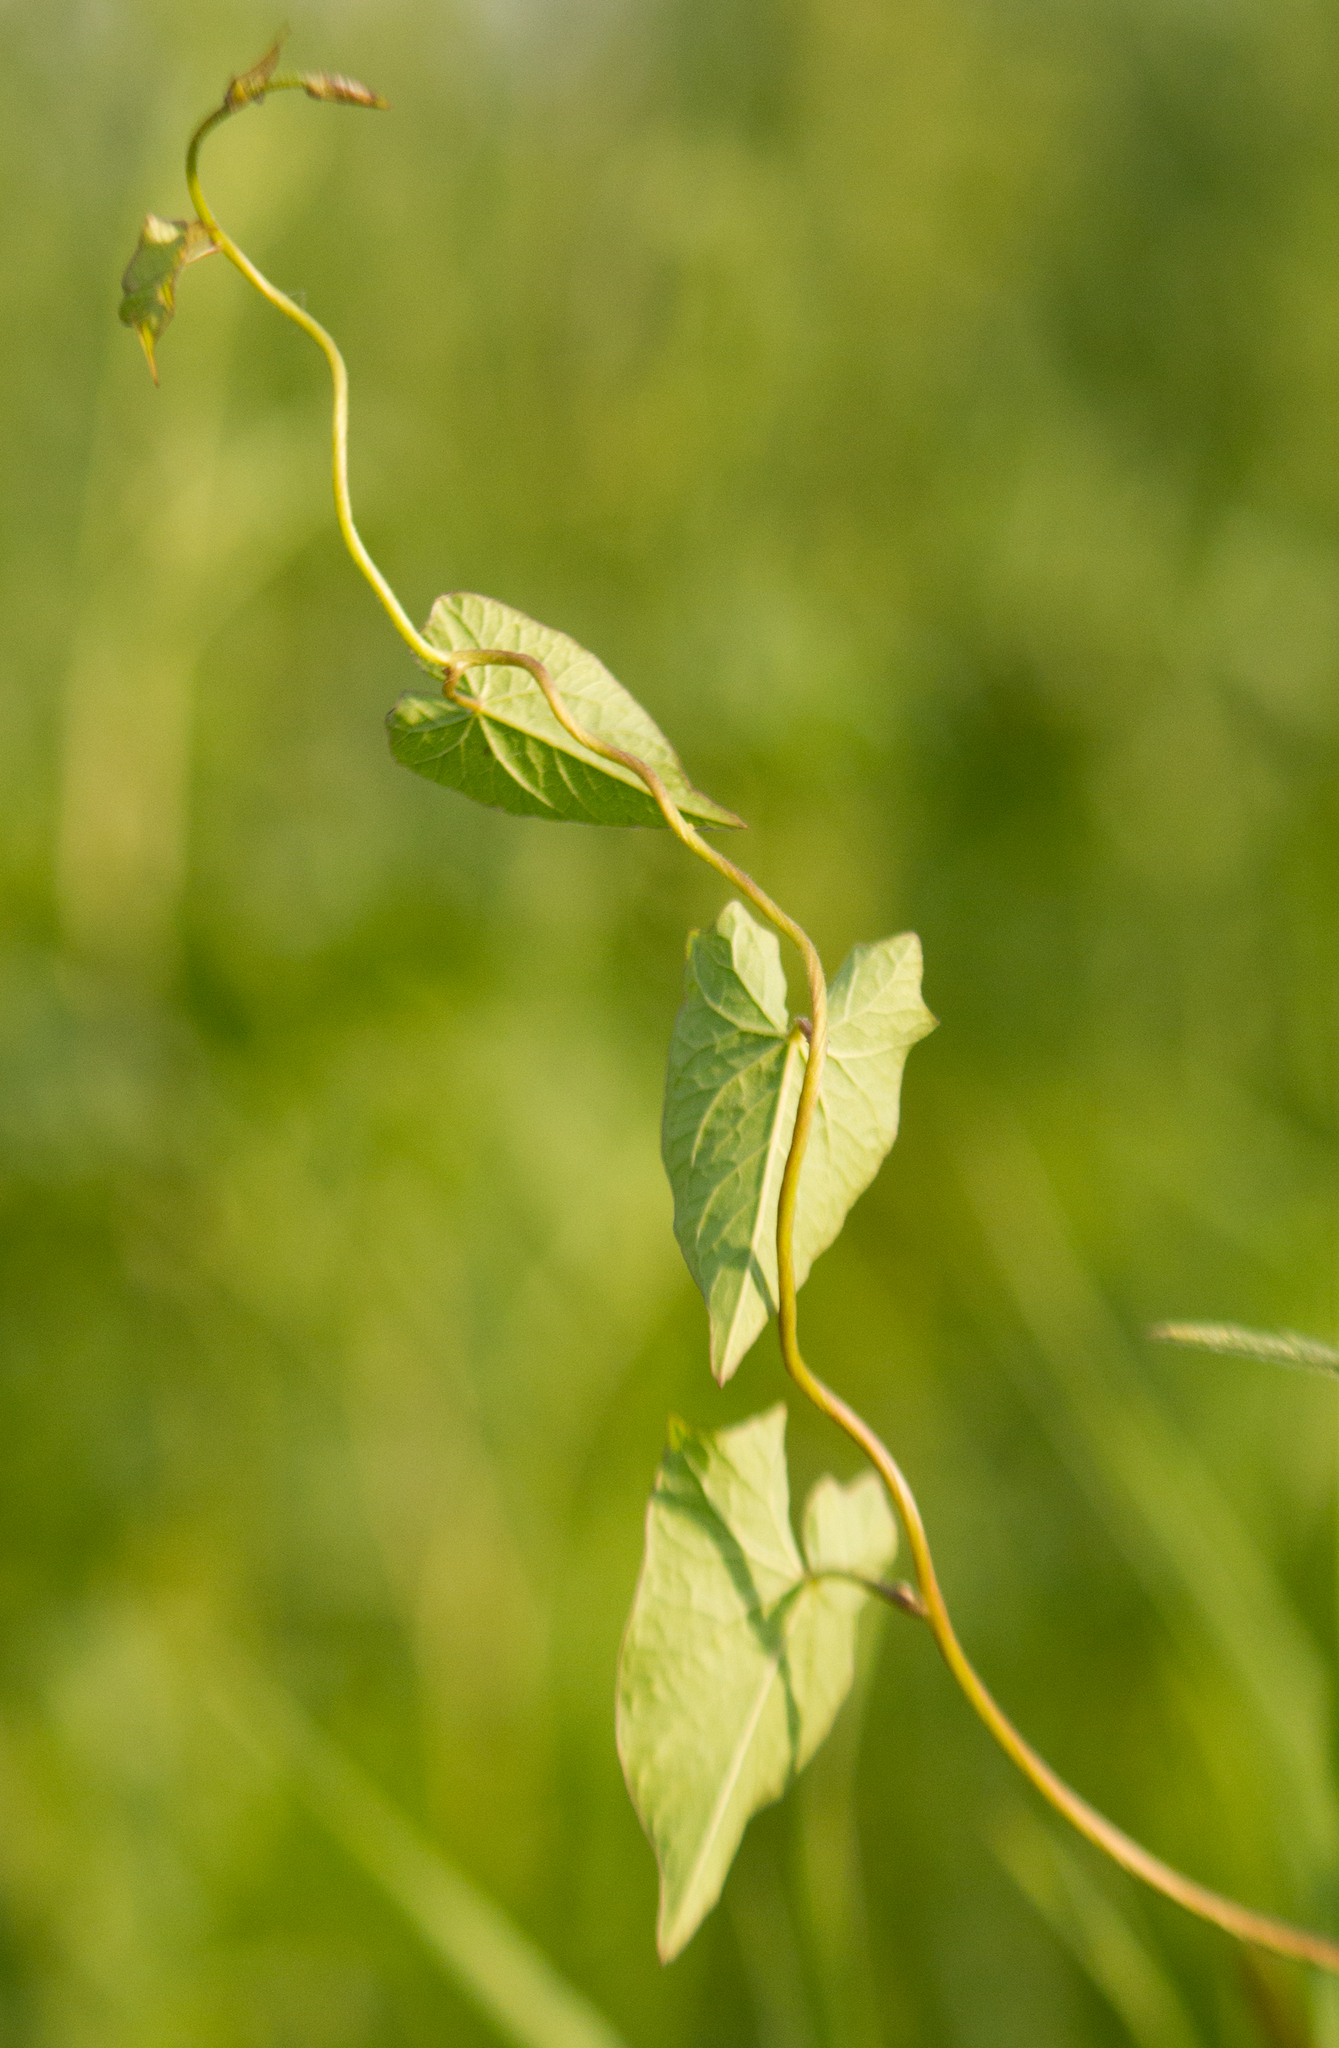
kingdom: Plantae
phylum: Tracheophyta
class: Magnoliopsida
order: Solanales
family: Convolvulaceae
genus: Calystegia
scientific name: Calystegia
